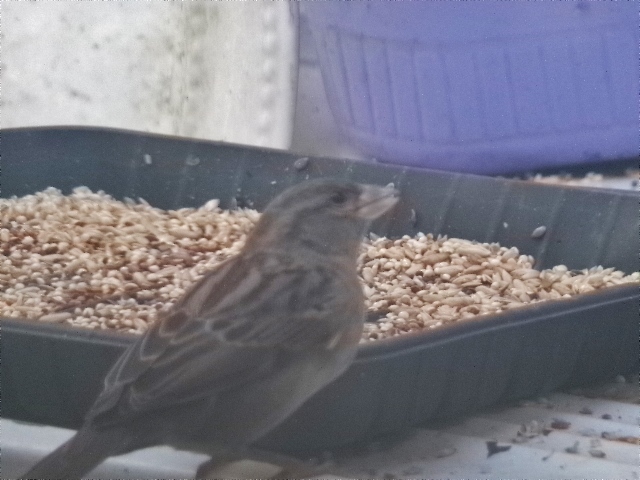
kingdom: Animalia
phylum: Chordata
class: Aves
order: Passeriformes
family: Passeridae
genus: Passer
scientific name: Passer domesticus
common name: House sparrow
